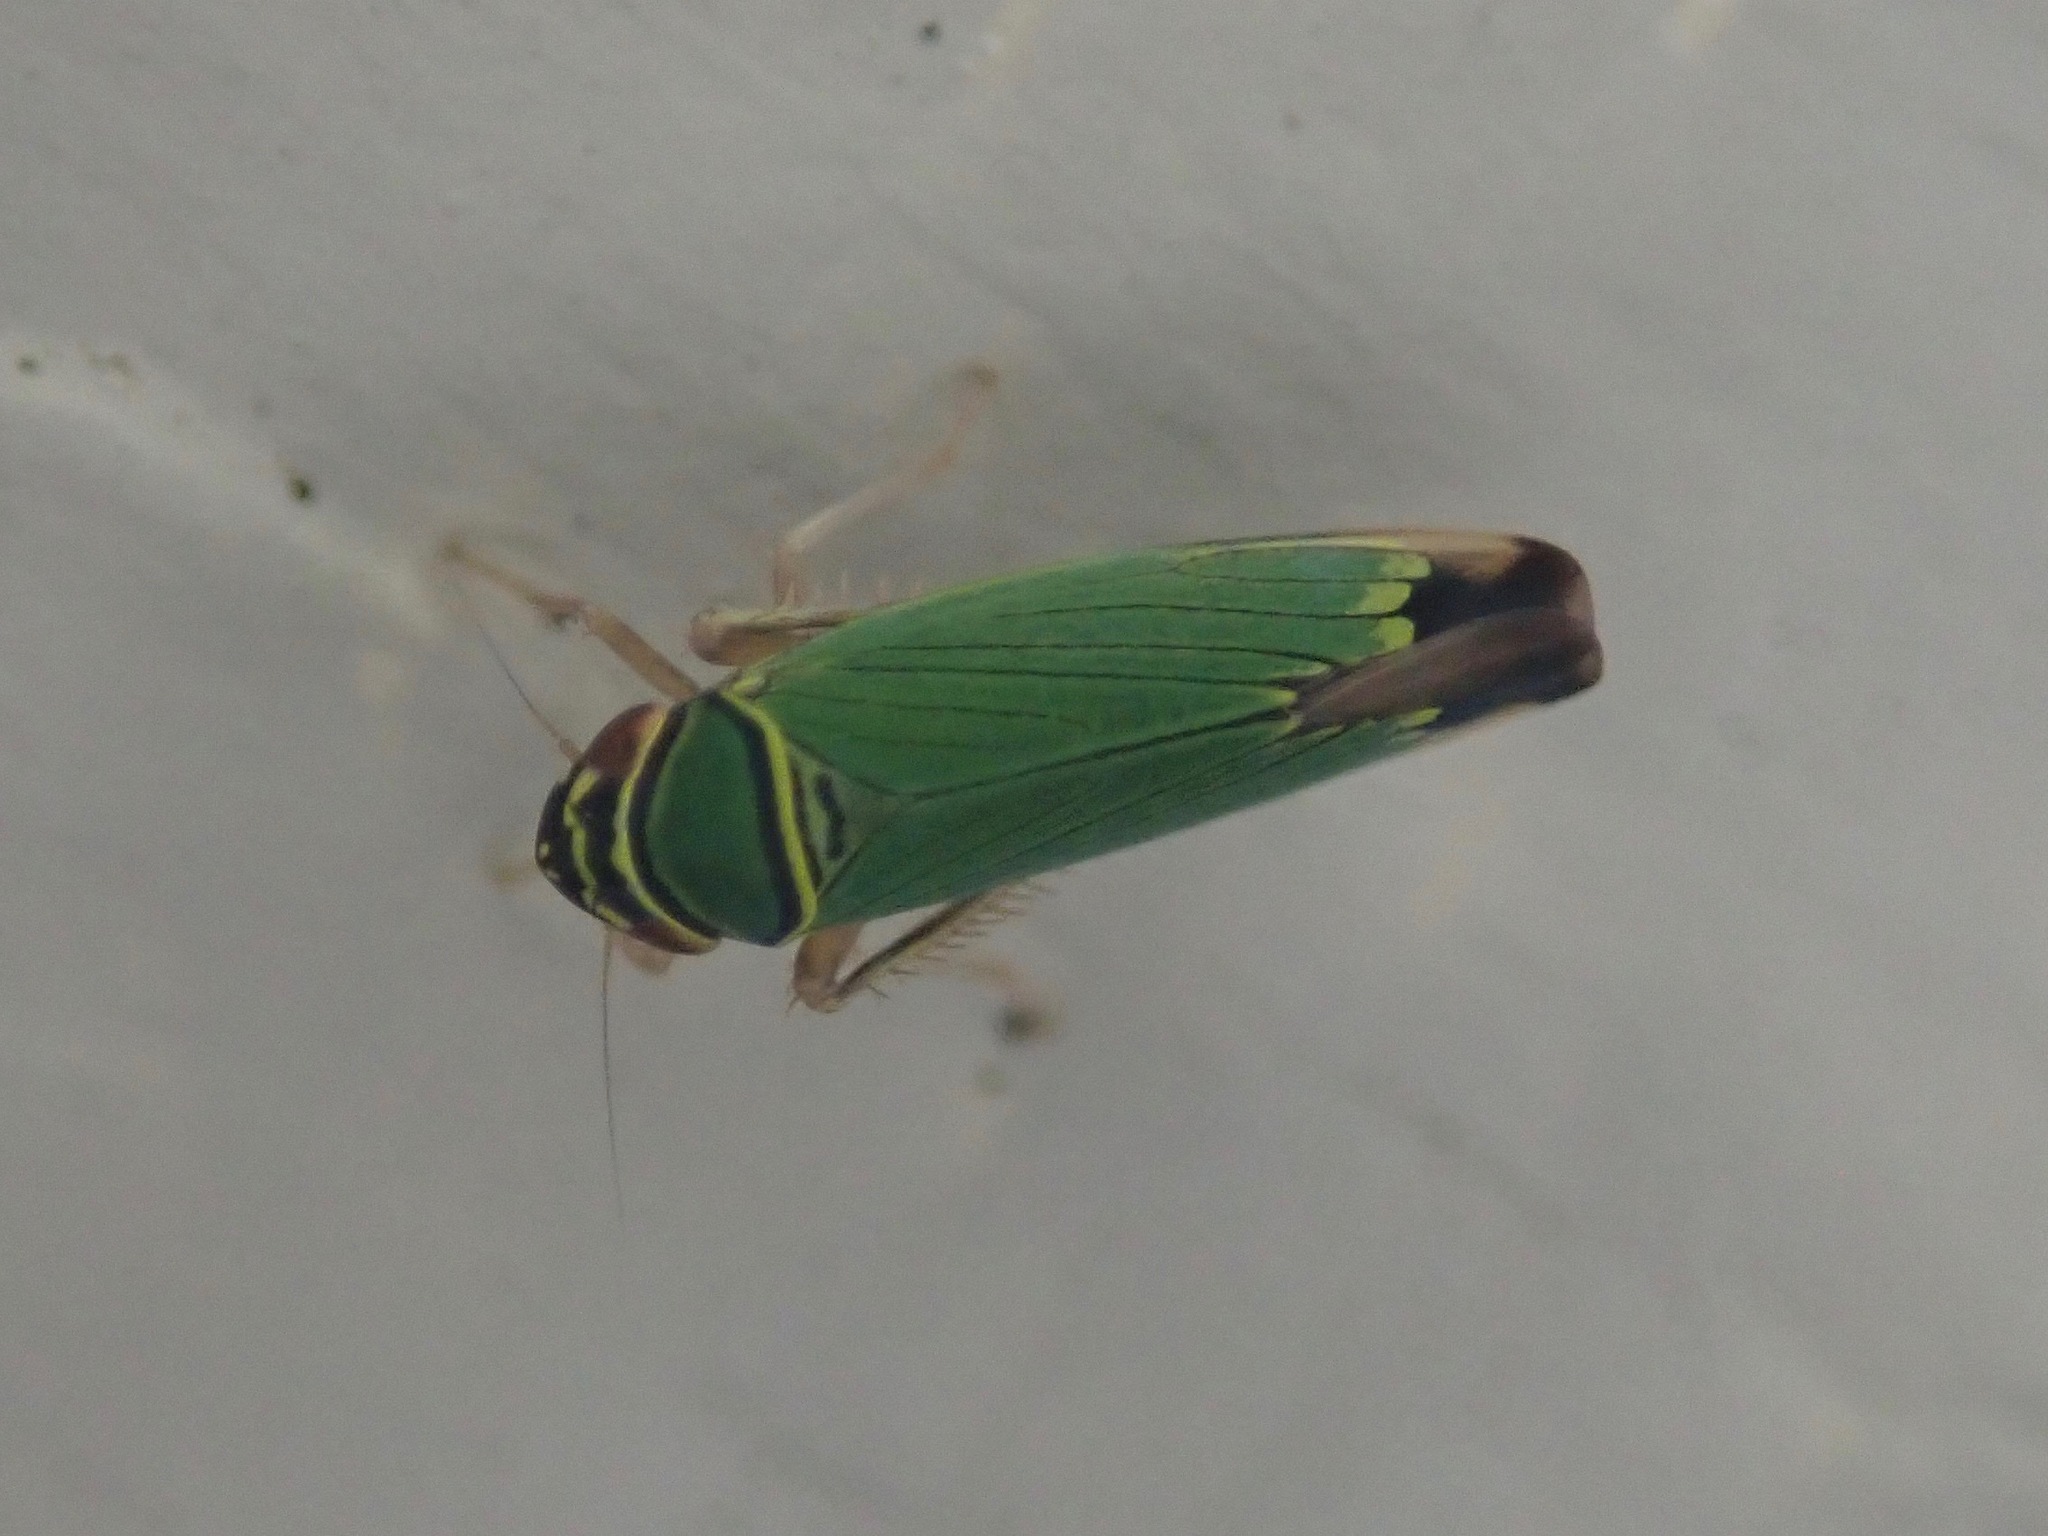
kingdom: Animalia
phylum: Arthropoda
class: Insecta
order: Hemiptera
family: Cicadellidae
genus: Tylozygus
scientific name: Tylozygus geometricus
